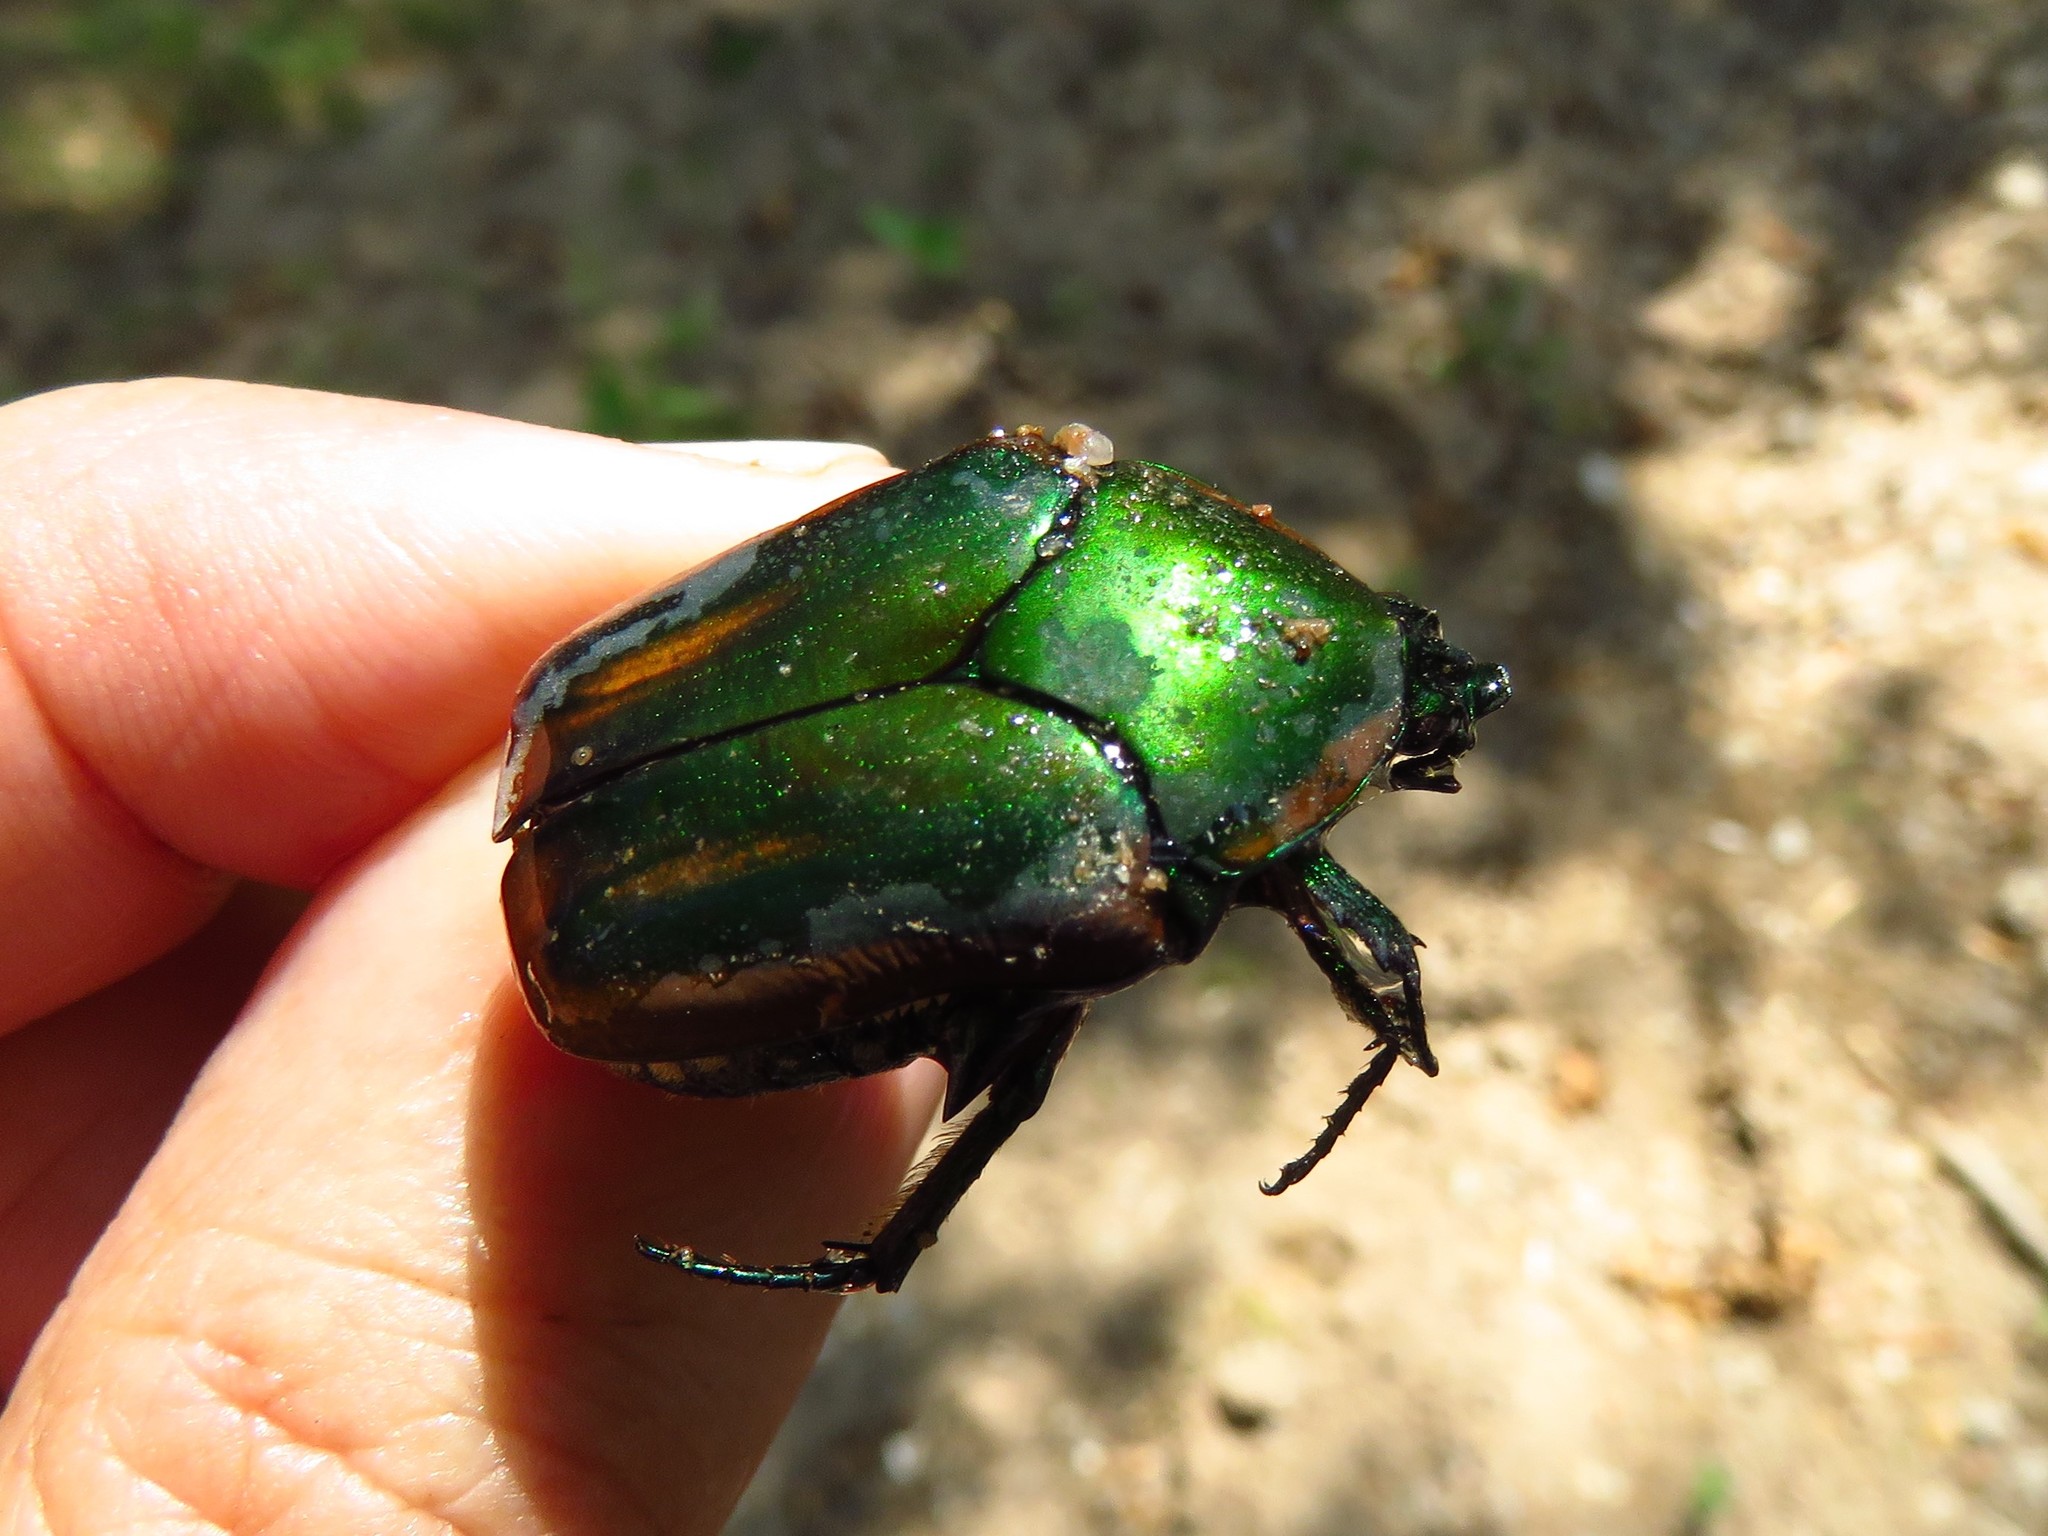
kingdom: Animalia
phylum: Arthropoda
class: Insecta
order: Coleoptera
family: Scarabaeidae
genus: Cotinis
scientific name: Cotinis nitida
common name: Common green june beetle
